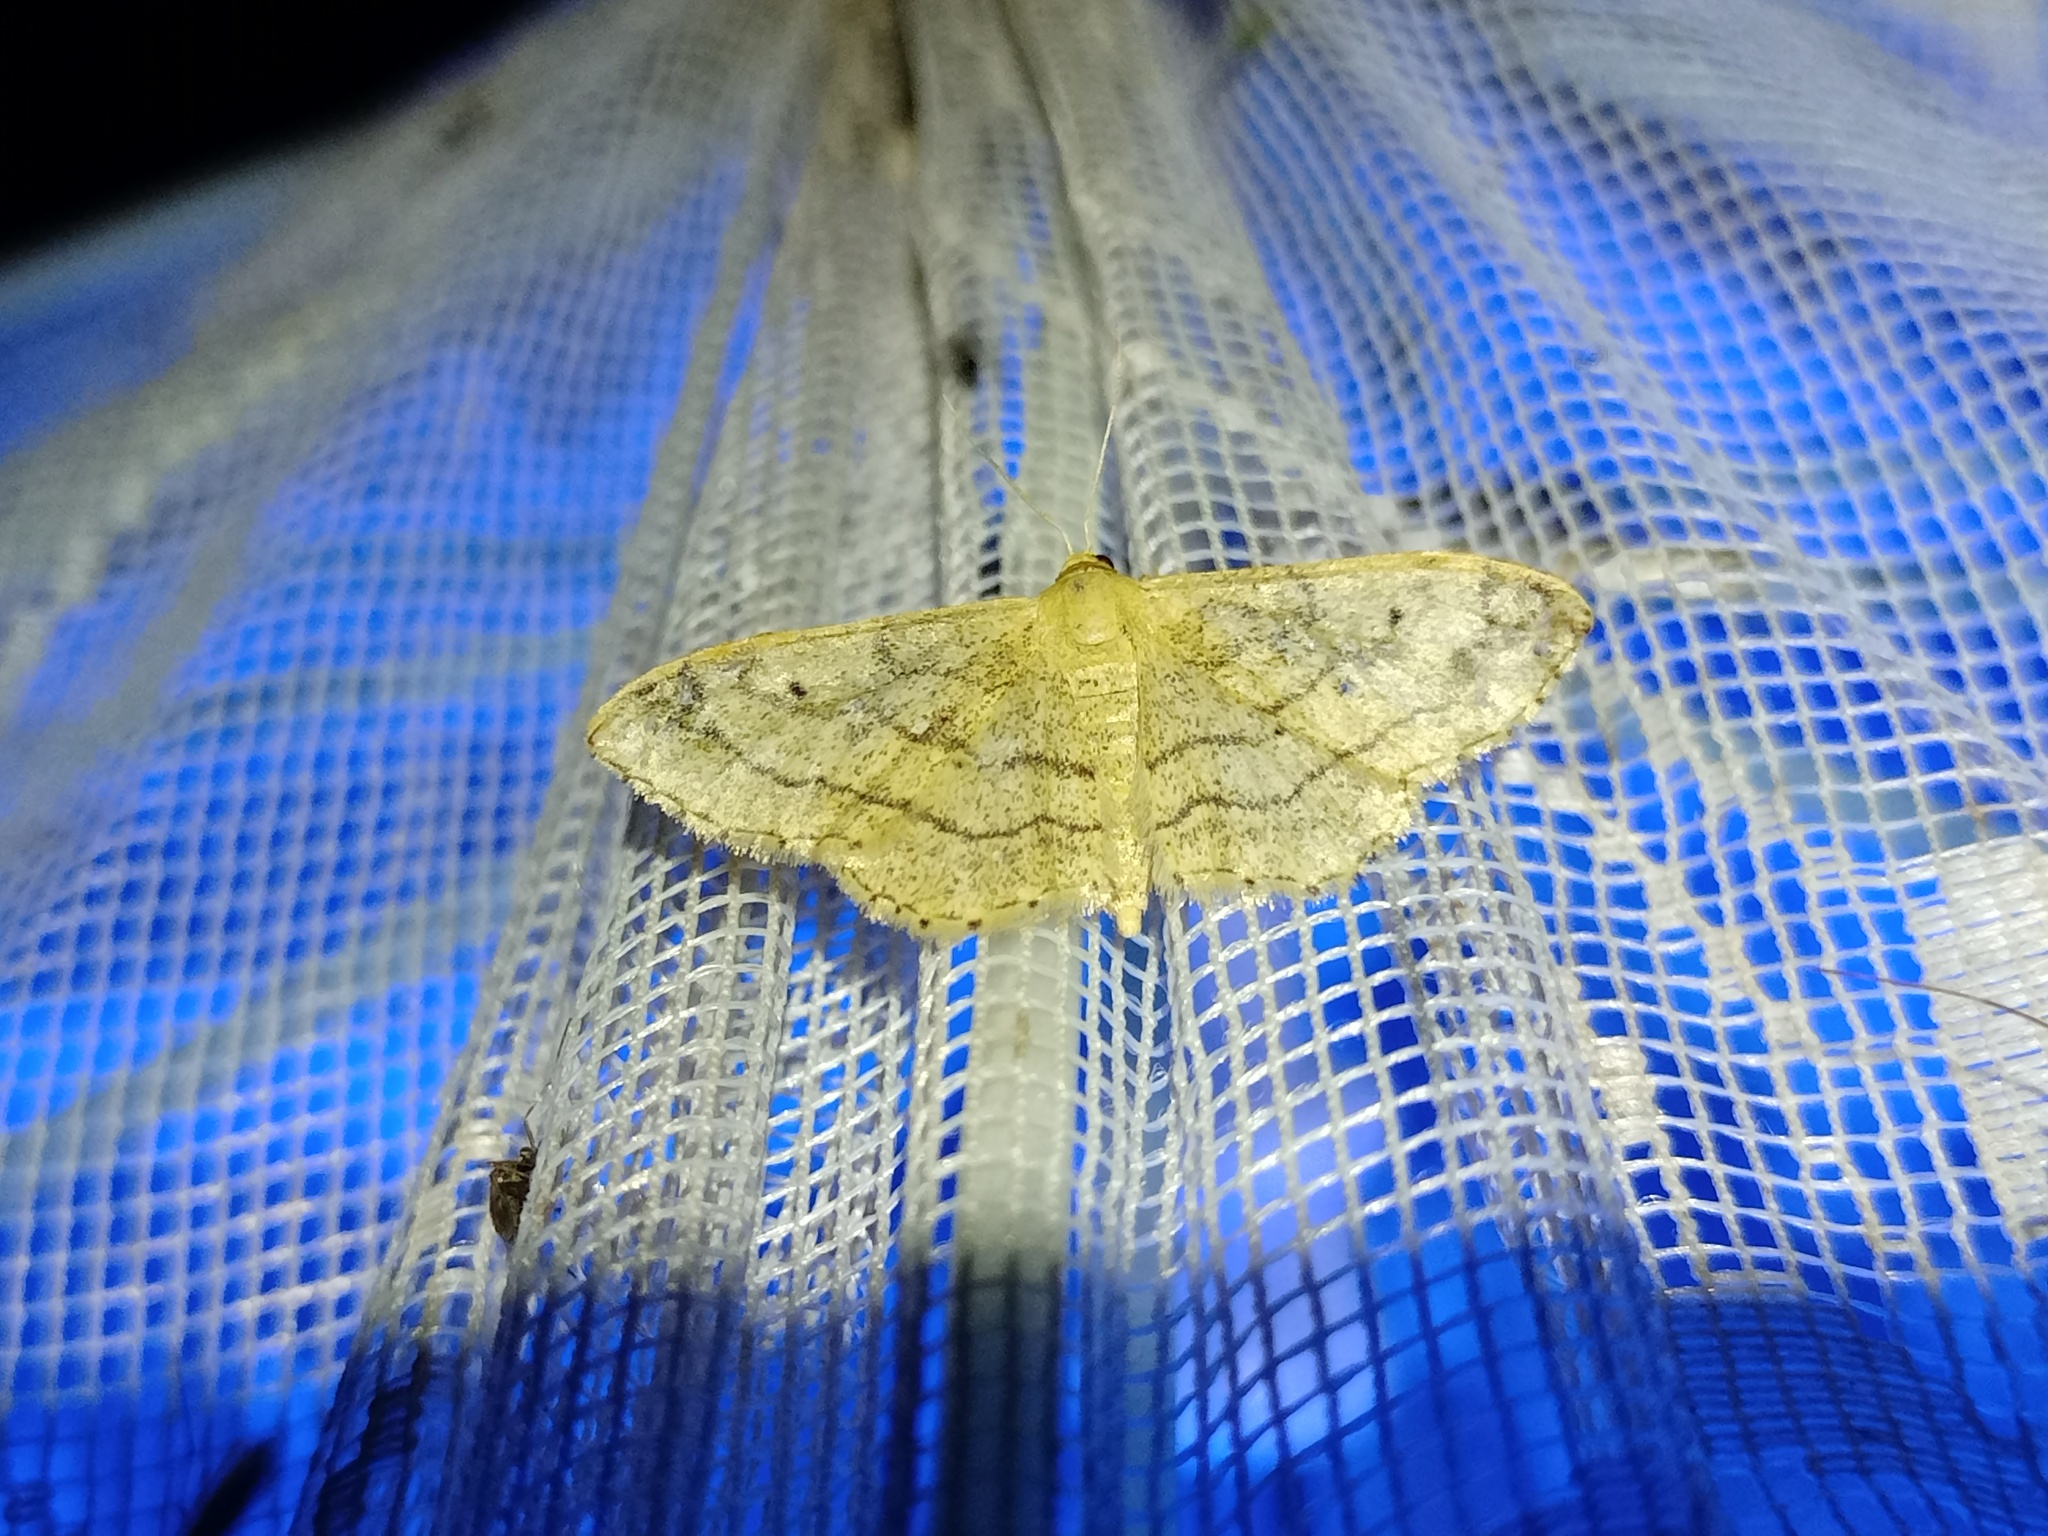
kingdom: Animalia
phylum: Arthropoda
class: Insecta
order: Lepidoptera
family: Geometridae
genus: Idaea
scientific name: Idaea aversata
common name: Riband wave
